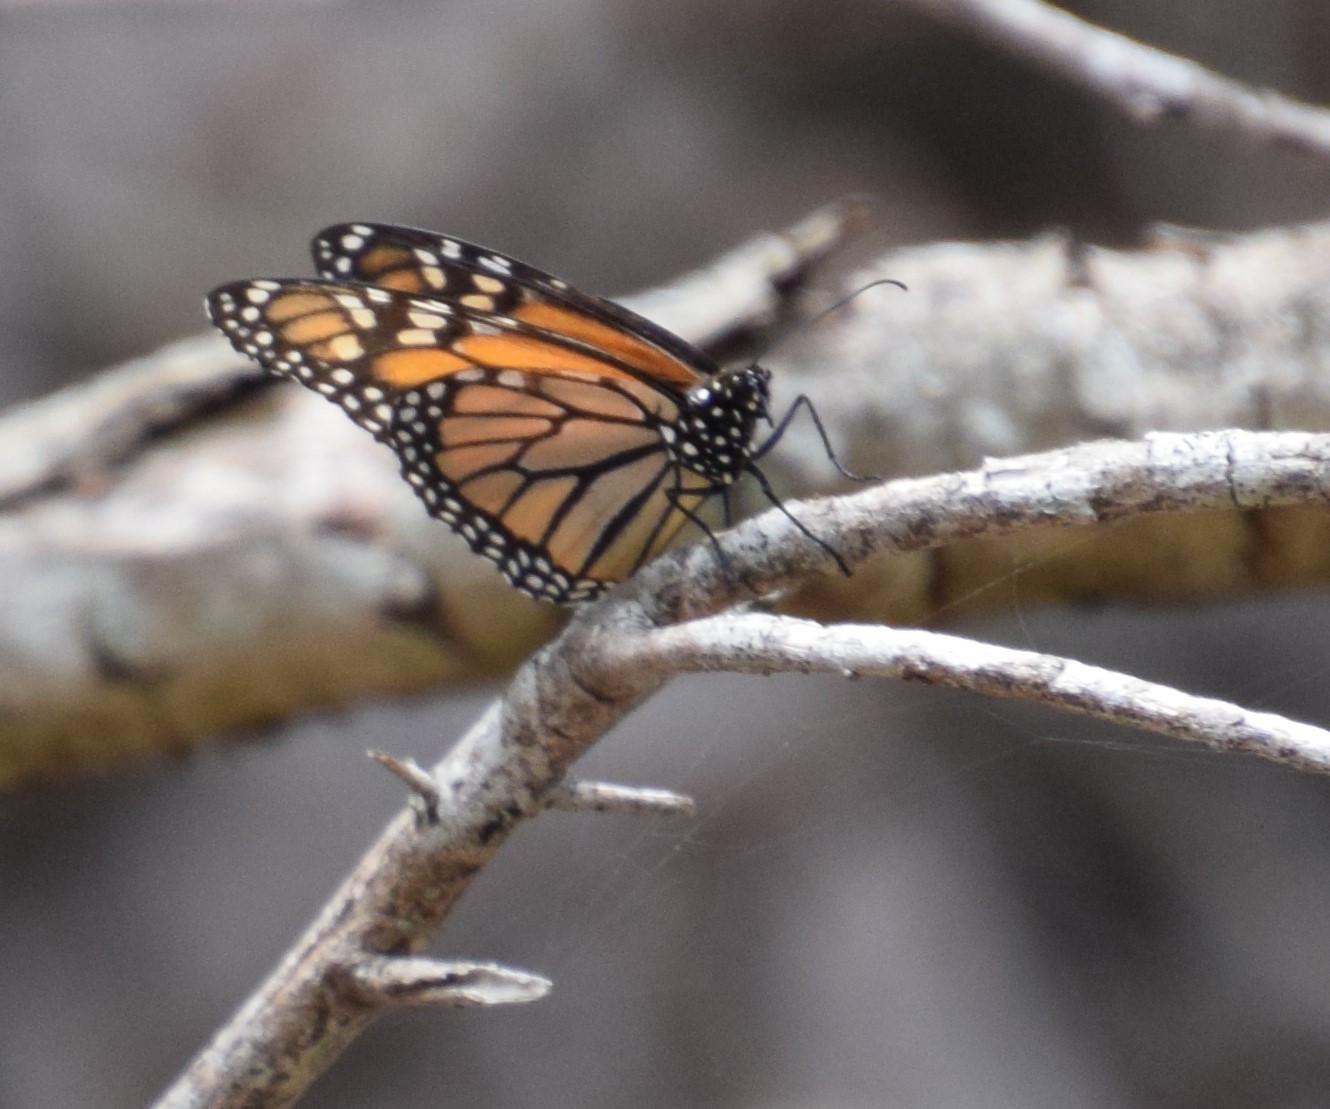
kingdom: Animalia
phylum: Arthropoda
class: Insecta
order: Lepidoptera
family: Nymphalidae
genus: Danaus
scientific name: Danaus plexippus
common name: Monarch
